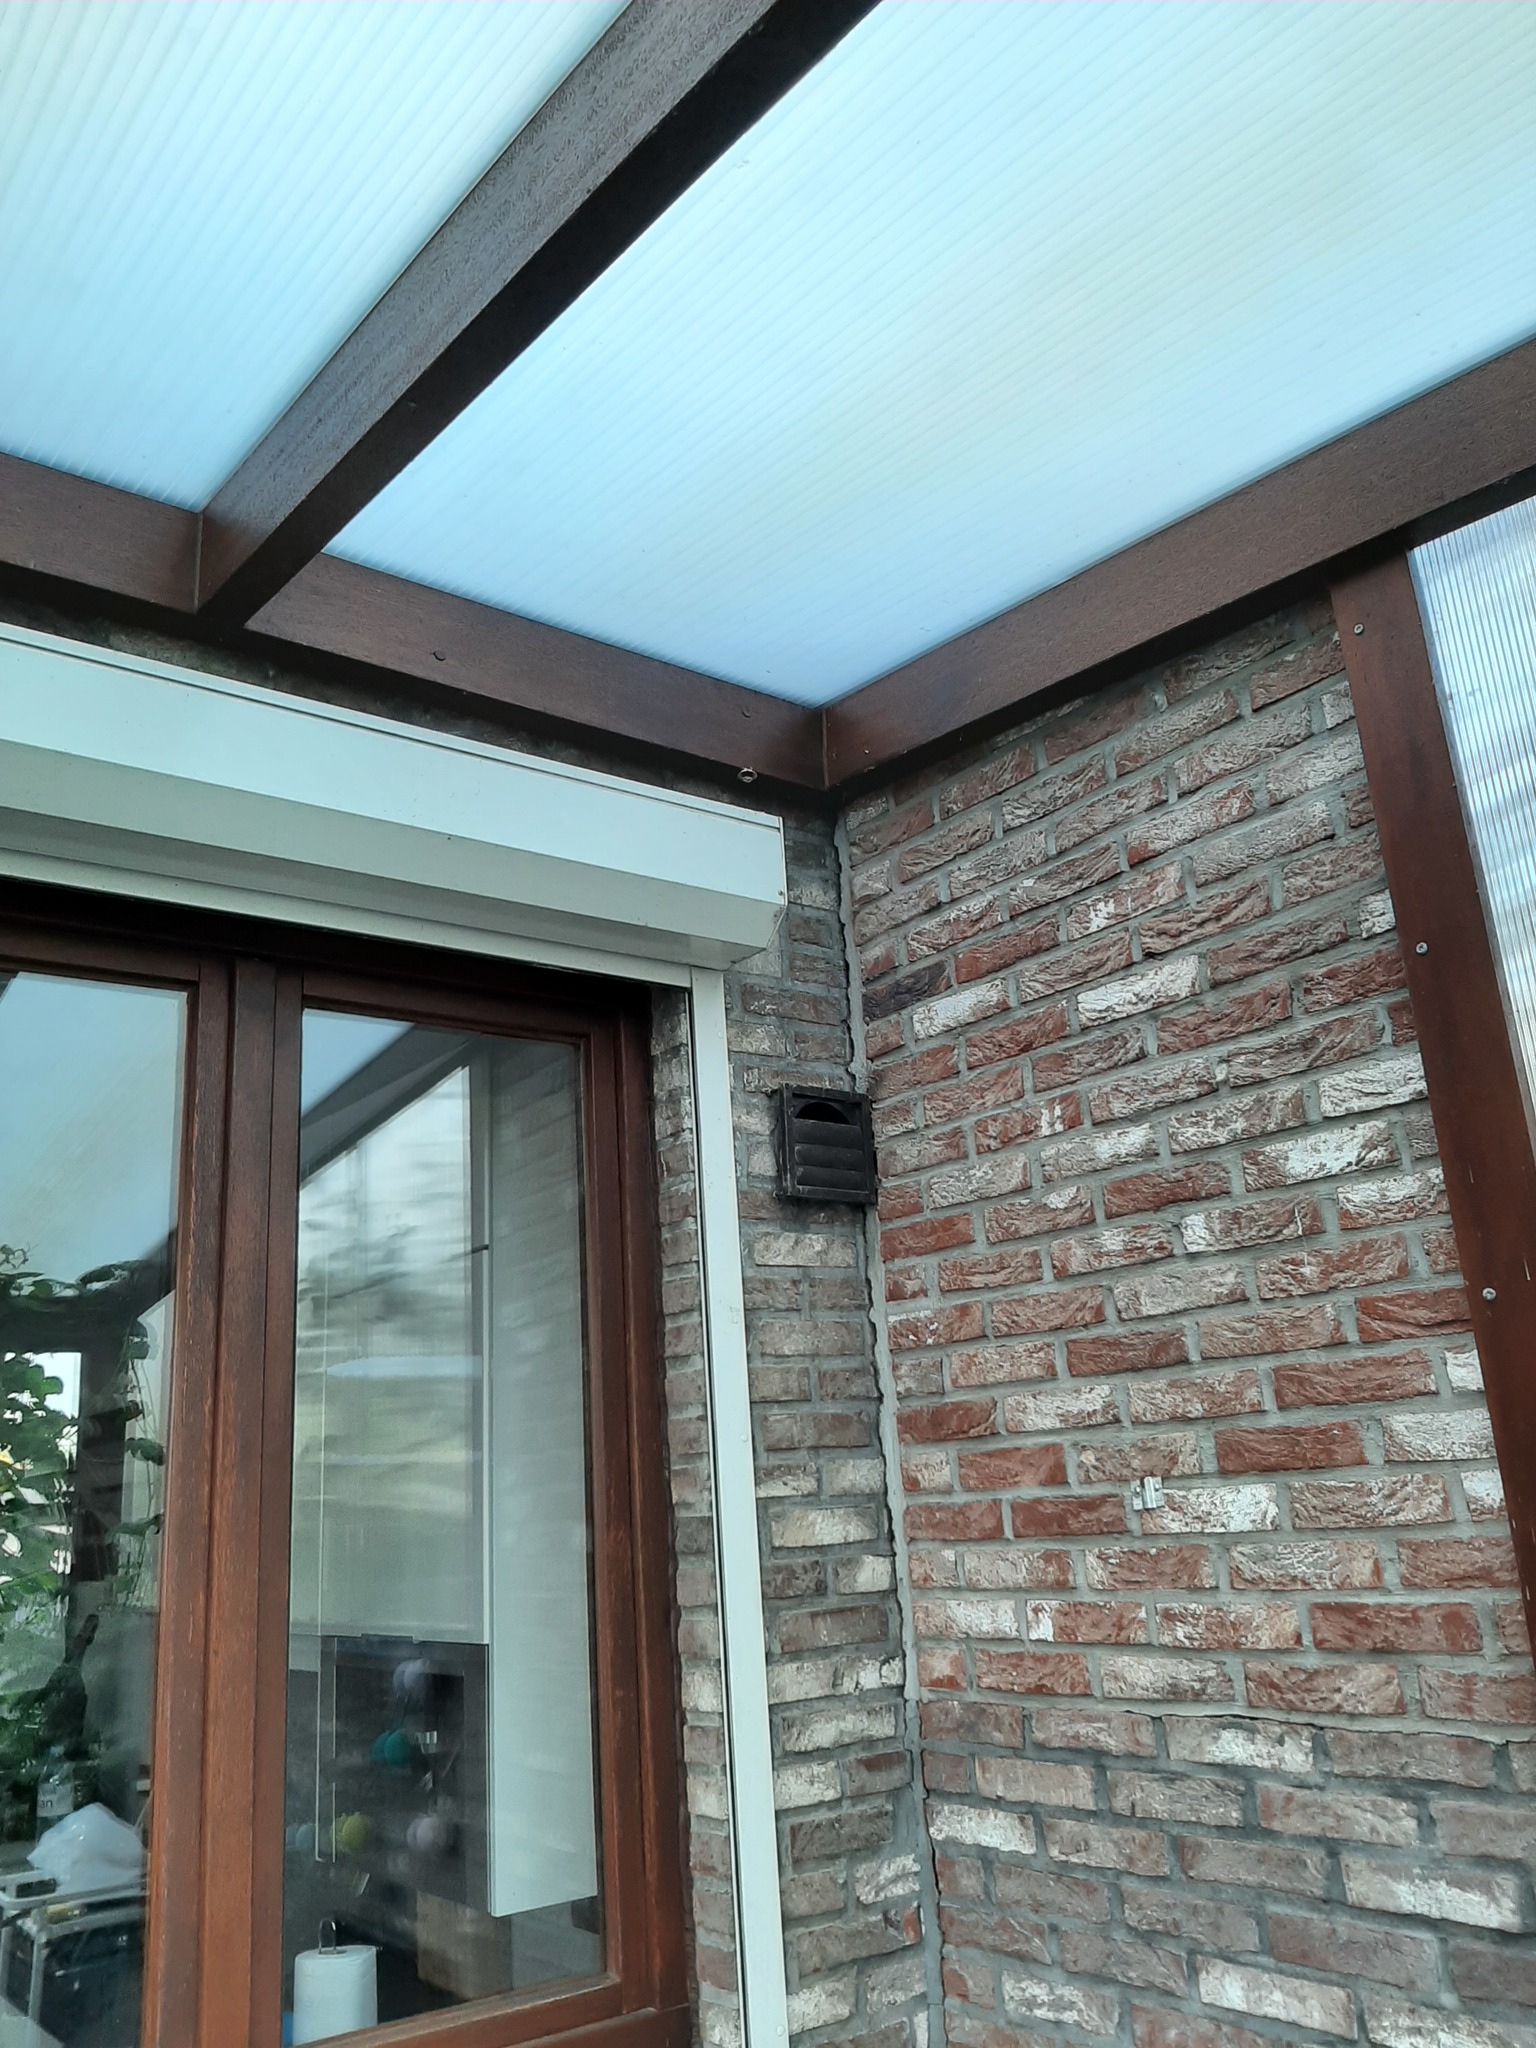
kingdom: Animalia
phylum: Arthropoda
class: Insecta
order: Hymenoptera
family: Vespidae
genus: Vespa
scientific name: Vespa velutina
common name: Asian hornet
